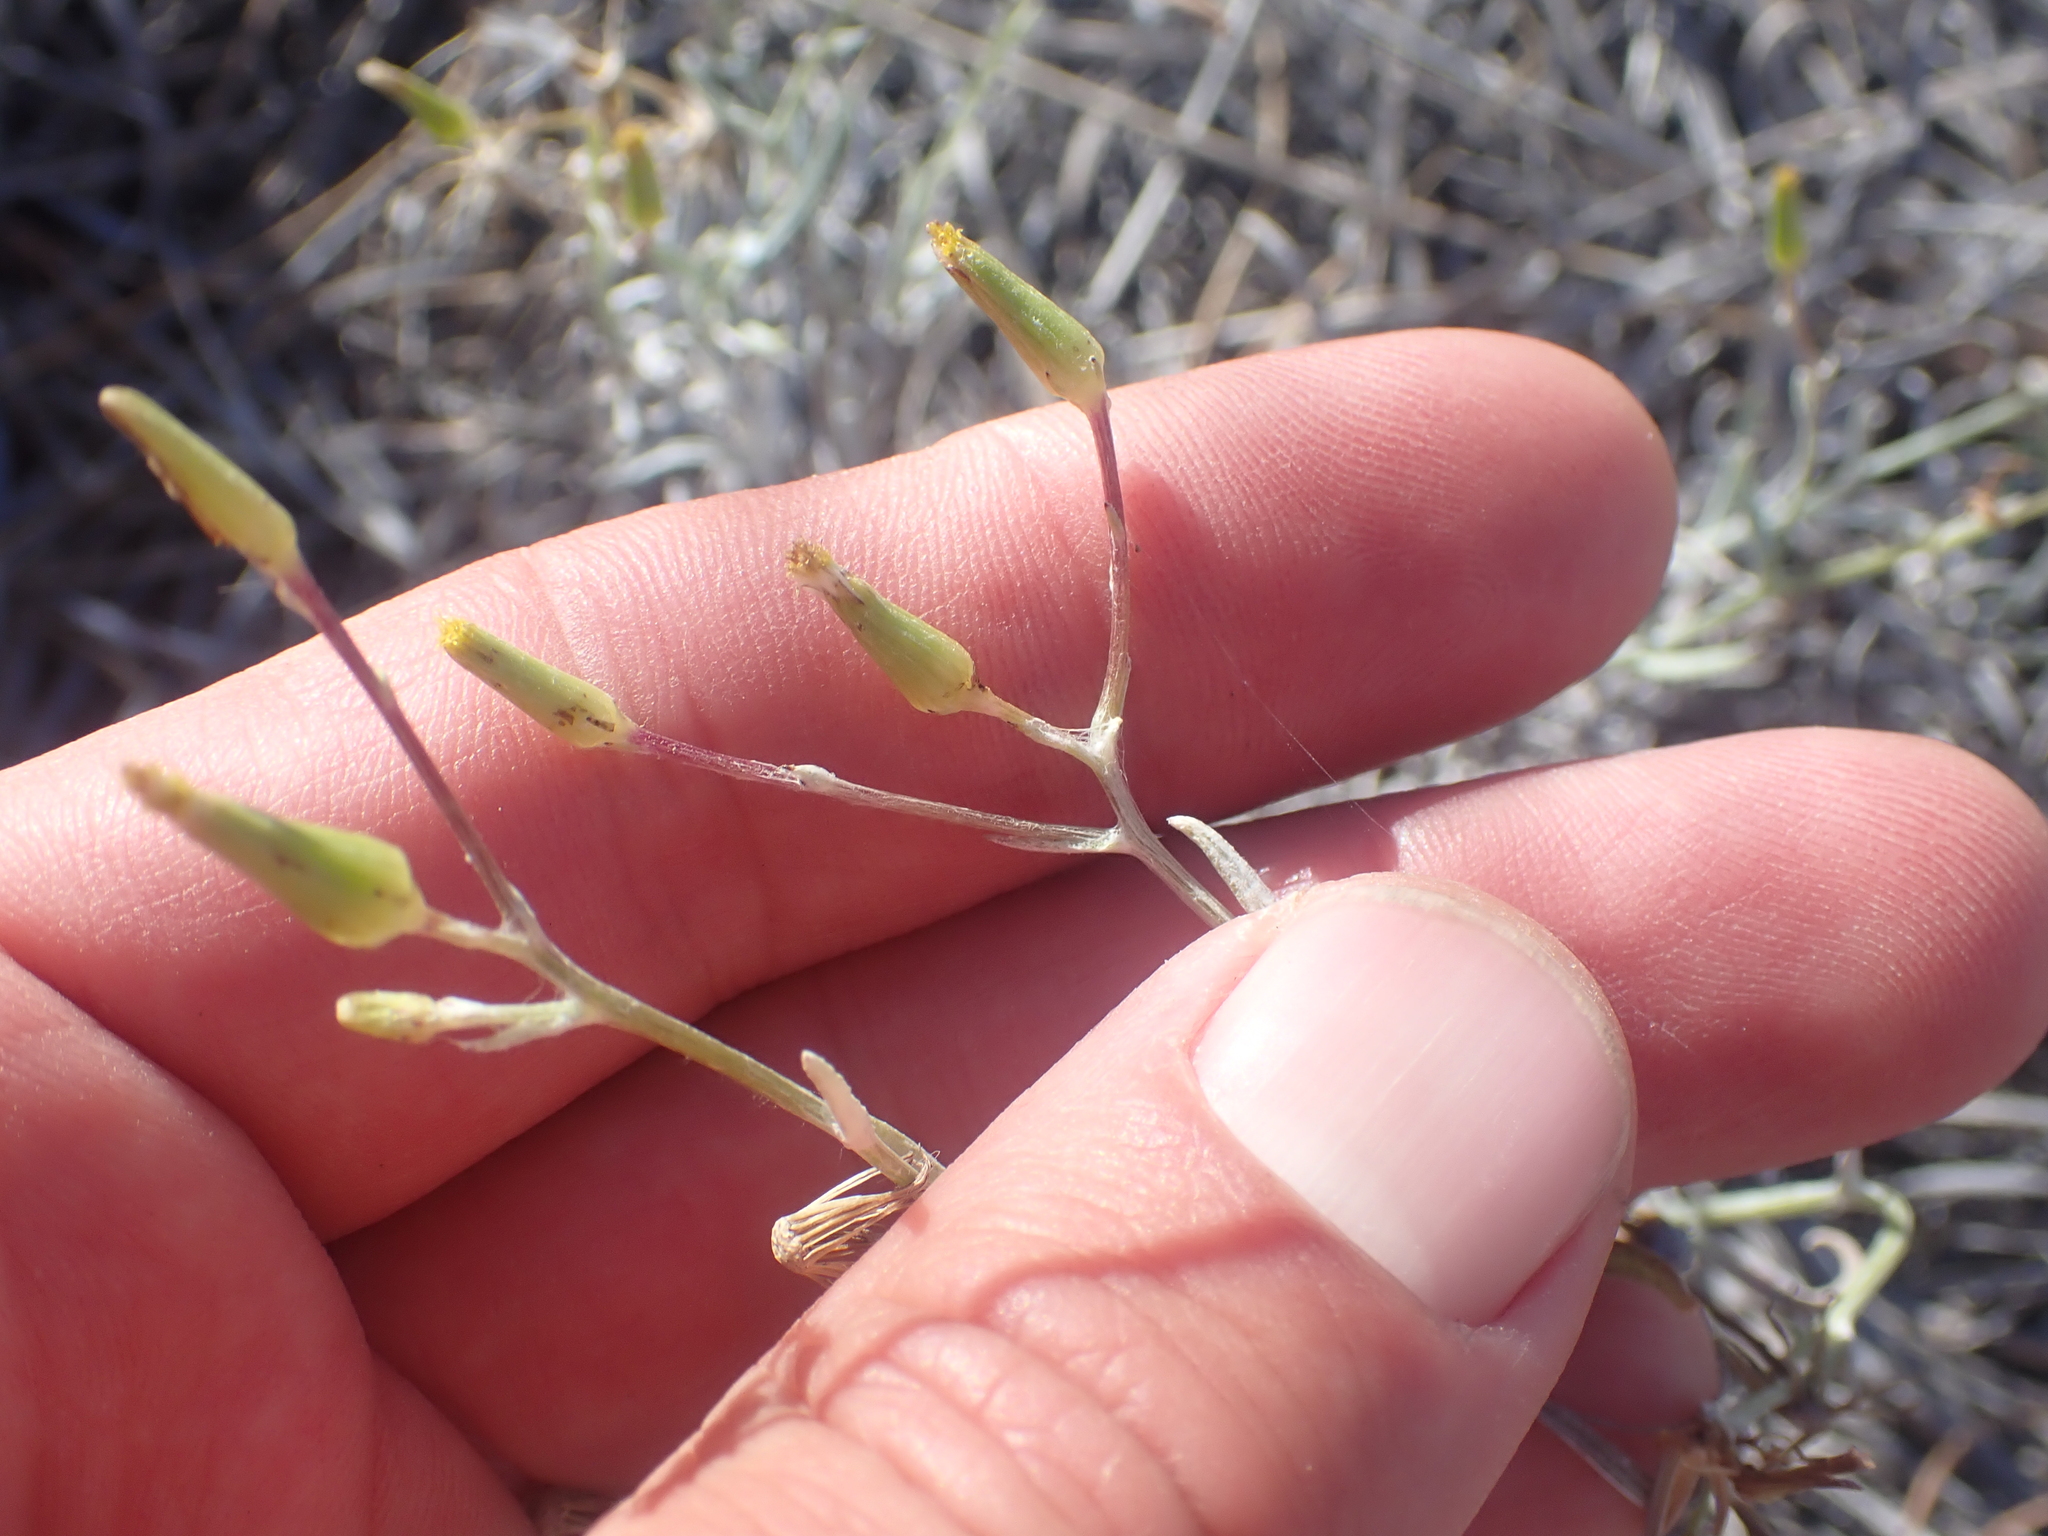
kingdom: Plantae
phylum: Tracheophyta
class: Magnoliopsida
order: Asterales
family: Asteraceae
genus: Senecio
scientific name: Senecio quadridentatus
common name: Cotton fireweed
